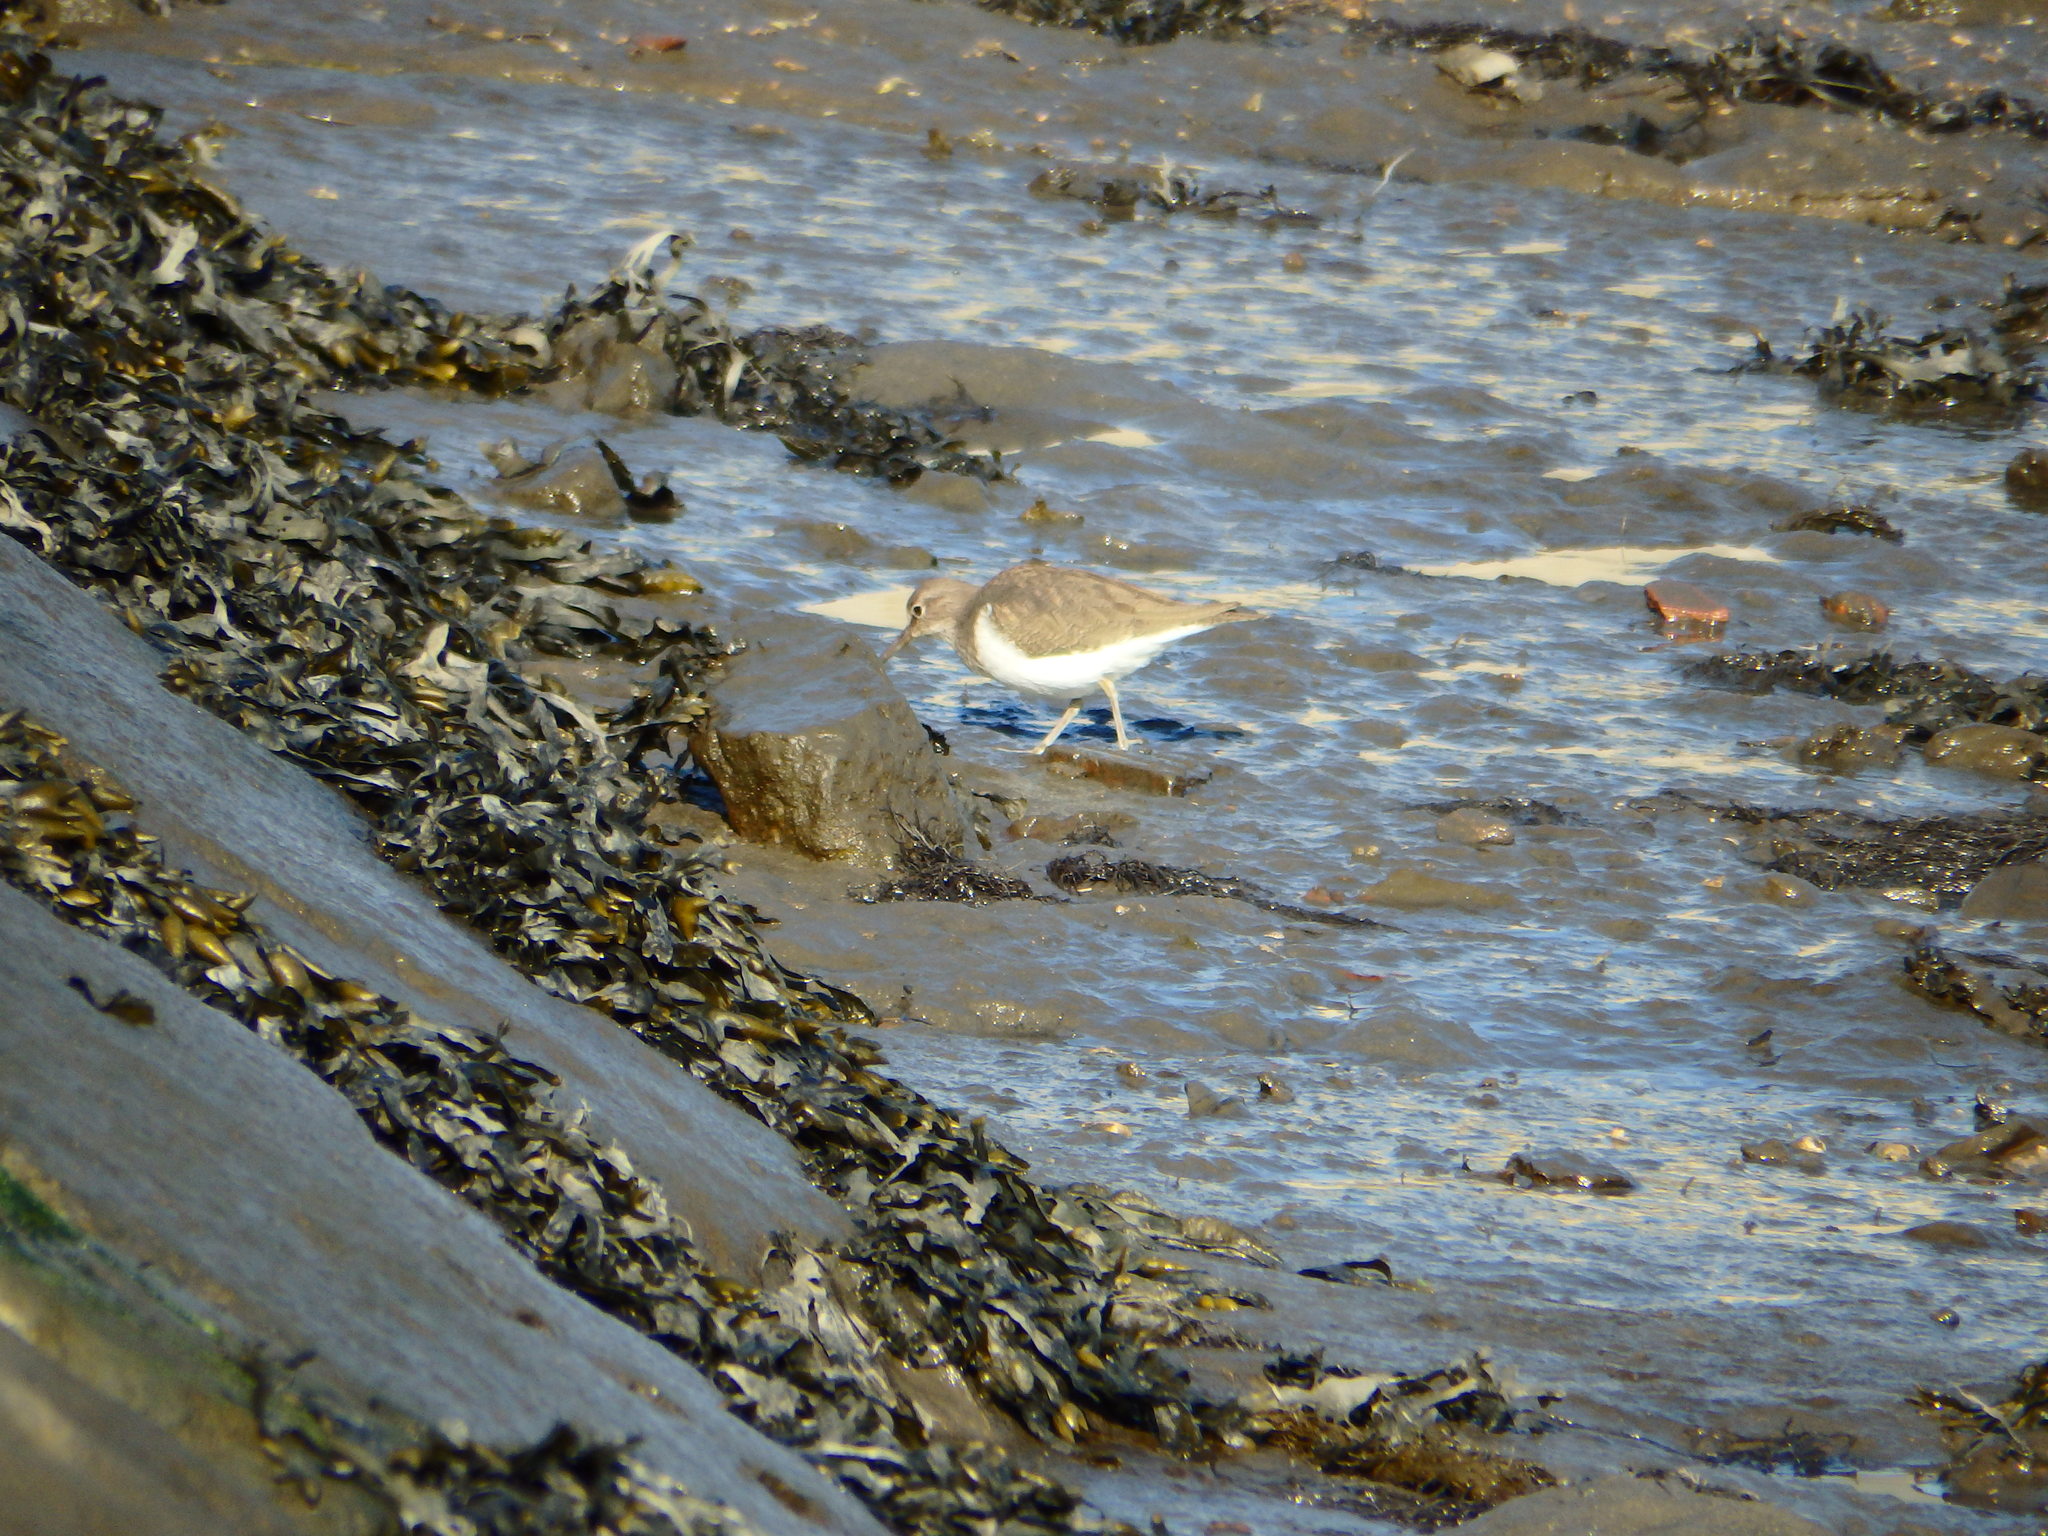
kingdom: Animalia
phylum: Chordata
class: Aves
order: Charadriiformes
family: Scolopacidae
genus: Actitis
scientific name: Actitis hypoleucos
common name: Common sandpiper
